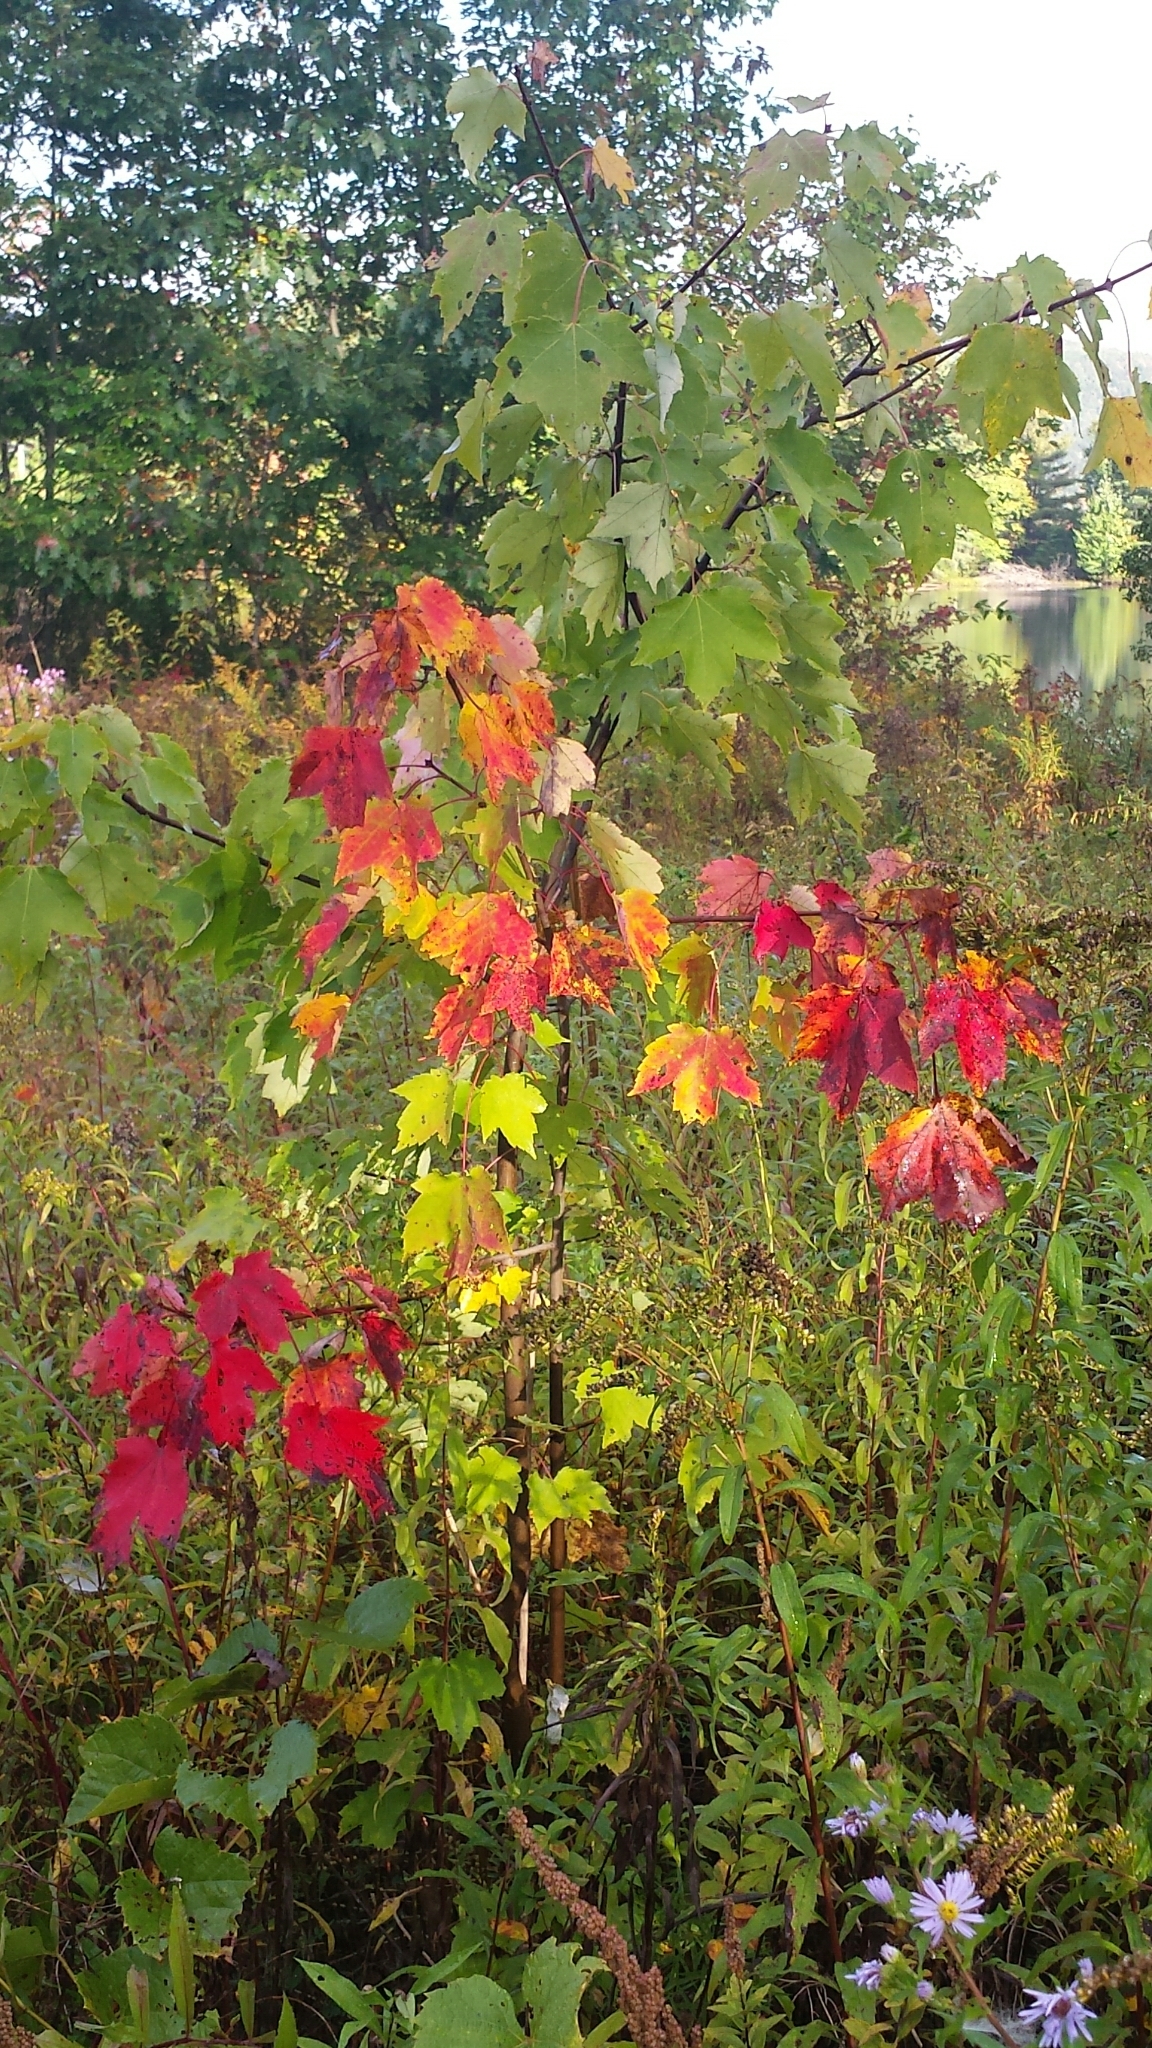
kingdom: Plantae
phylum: Tracheophyta
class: Magnoliopsida
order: Sapindales
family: Sapindaceae
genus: Acer
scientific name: Acer rubrum
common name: Red maple
